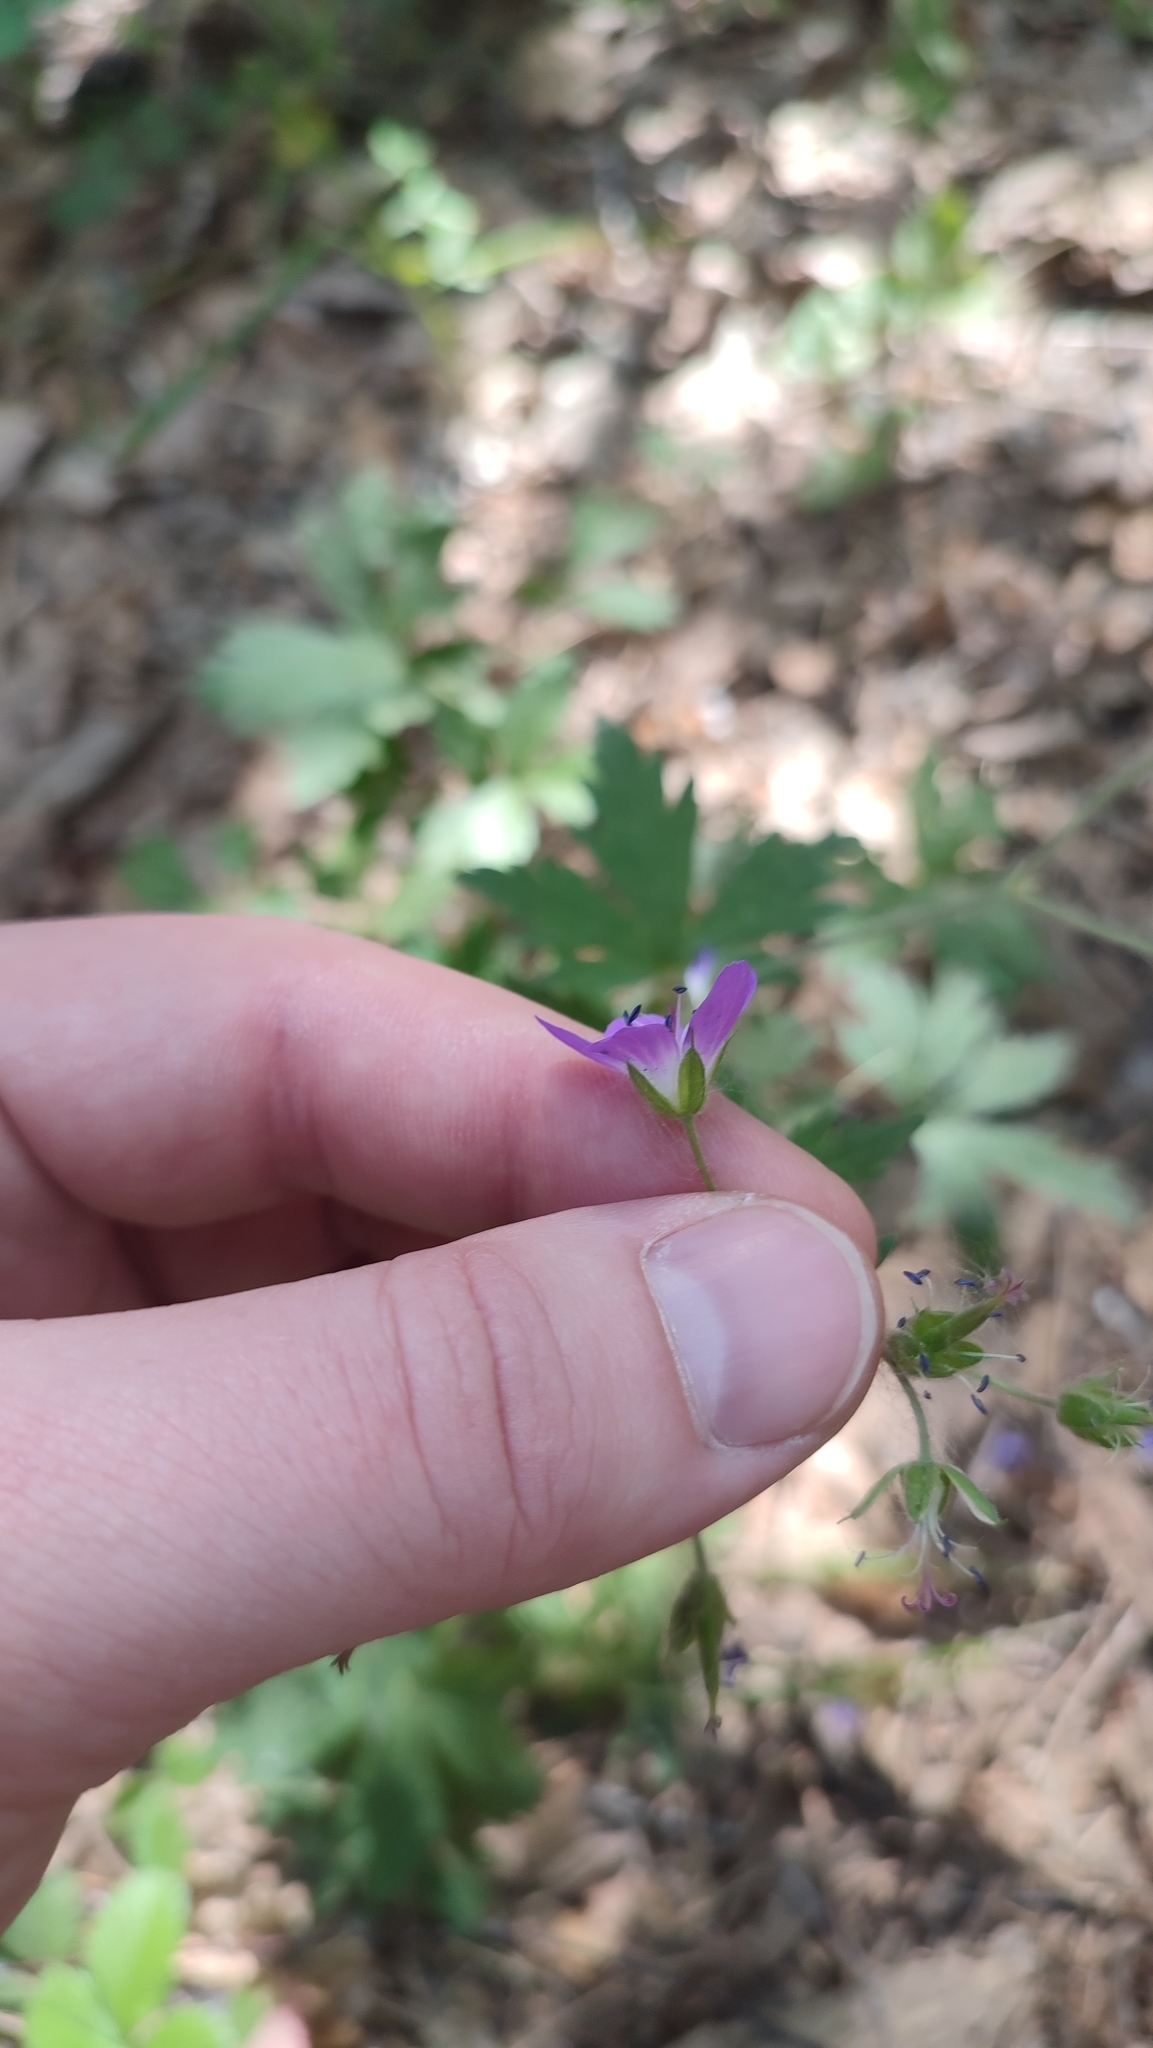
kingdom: Plantae
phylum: Tracheophyta
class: Magnoliopsida
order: Geraniales
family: Geraniaceae
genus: Geranium
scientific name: Geranium sylvaticum
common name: Wood crane's-bill
